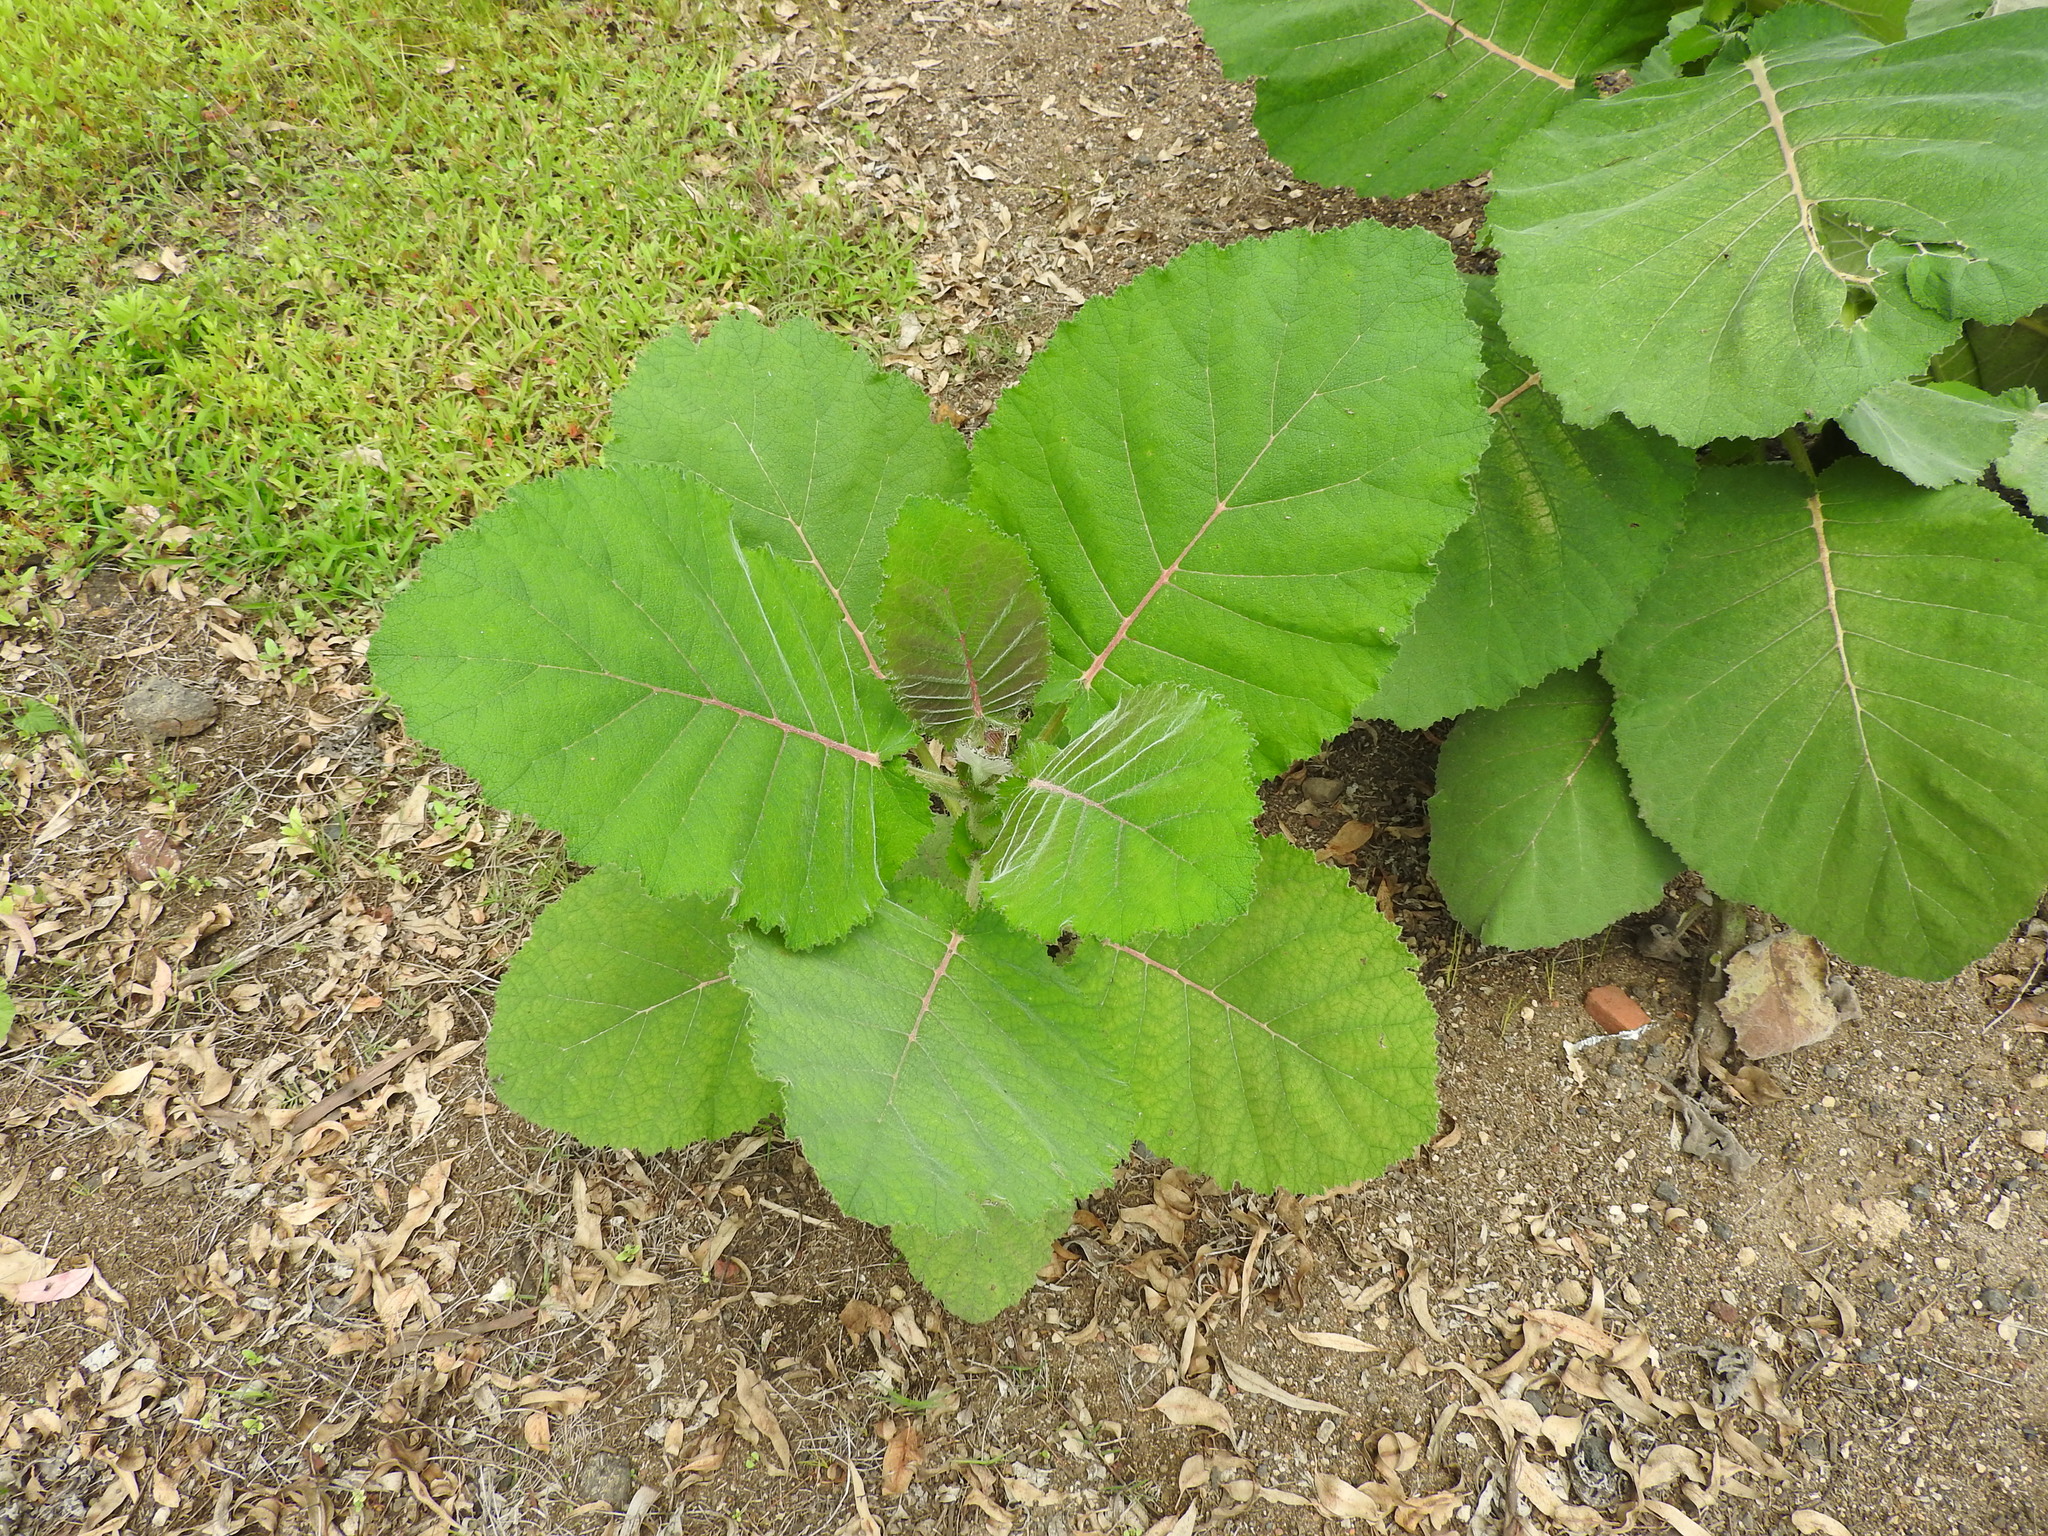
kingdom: Plantae
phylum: Tracheophyta
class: Magnoliopsida
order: Boraginales
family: Namaceae
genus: Wigandia
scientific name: Wigandia urens
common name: Caracus wigandia
